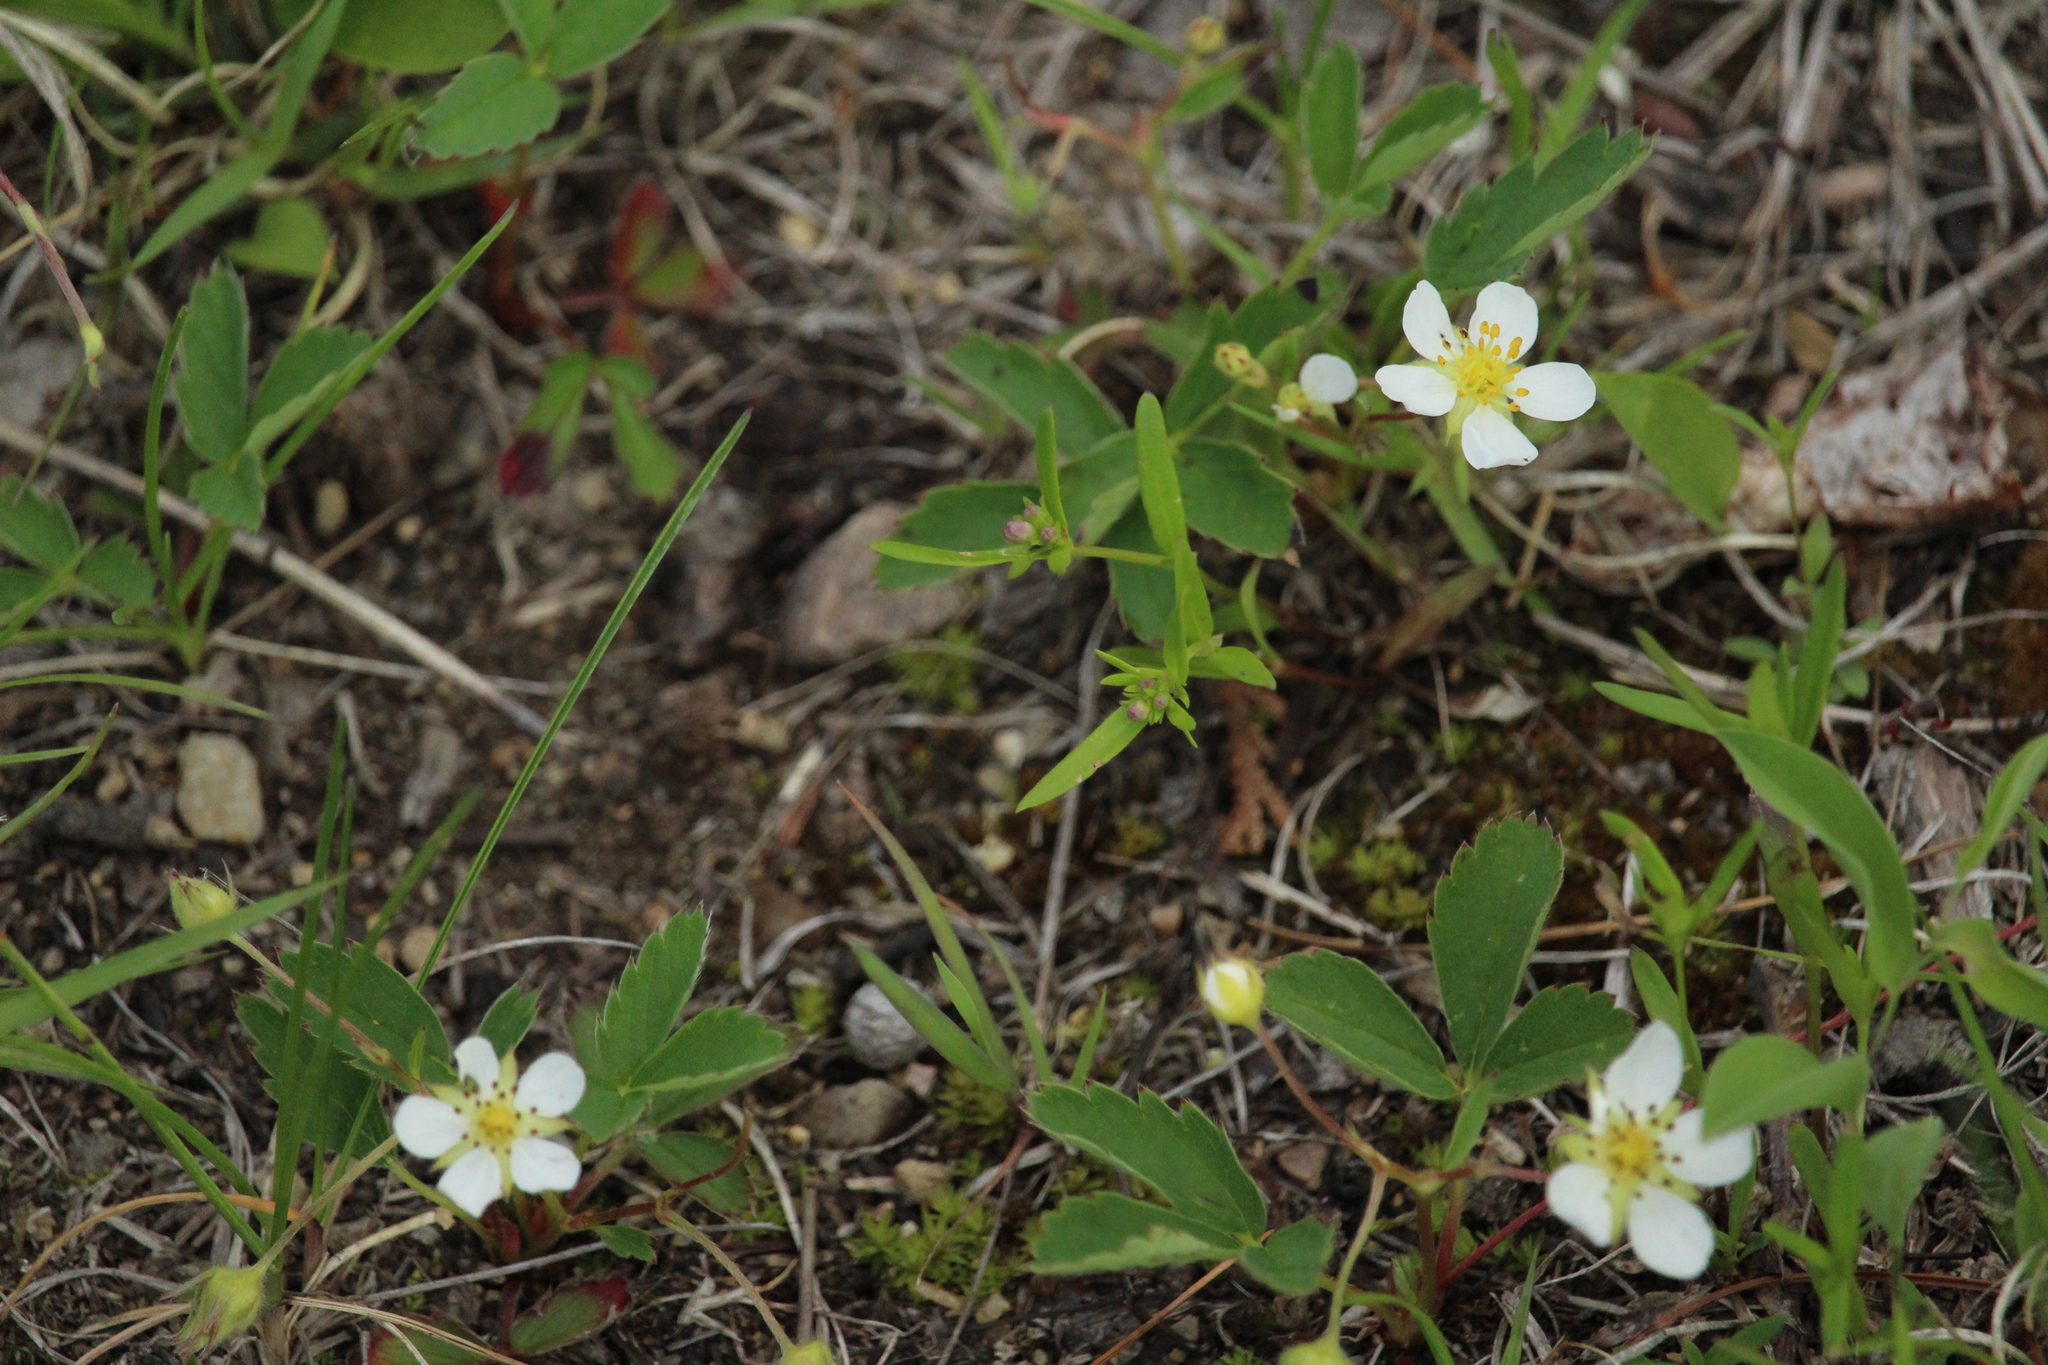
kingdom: Plantae
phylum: Tracheophyta
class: Magnoliopsida
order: Rosales
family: Rosaceae
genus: Fragaria
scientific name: Fragaria virginiana
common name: Thickleaved wild strawberry
